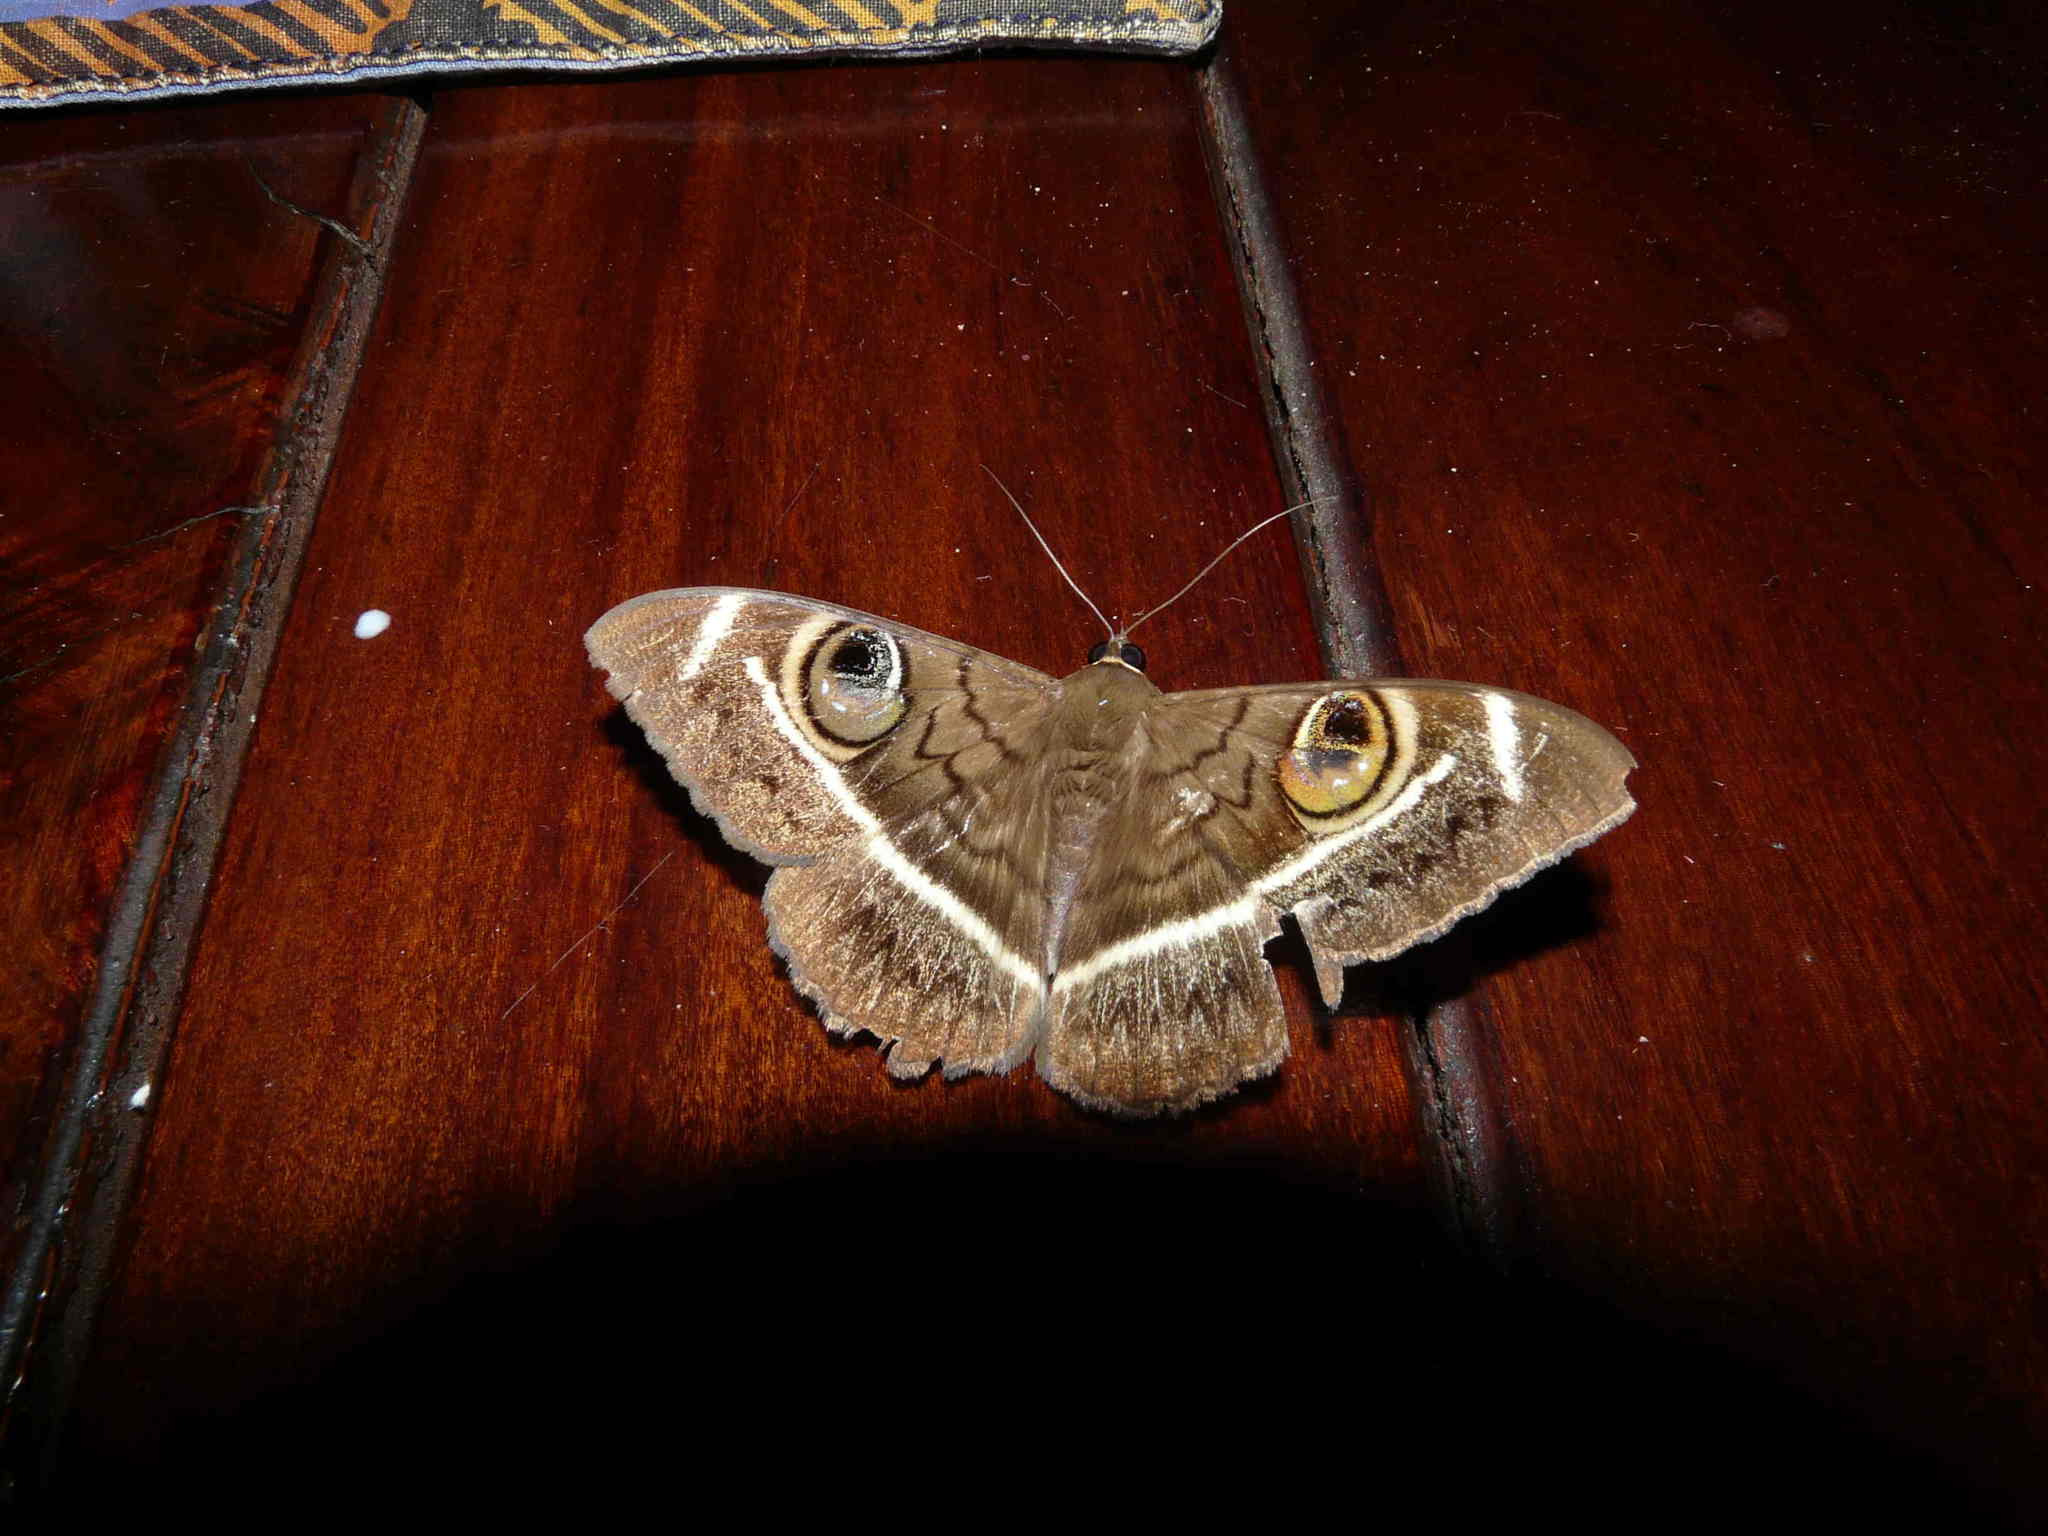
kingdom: Animalia
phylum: Arthropoda
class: Insecta
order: Lepidoptera
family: Erebidae
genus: Cyligramma
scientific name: Cyligramma latona
